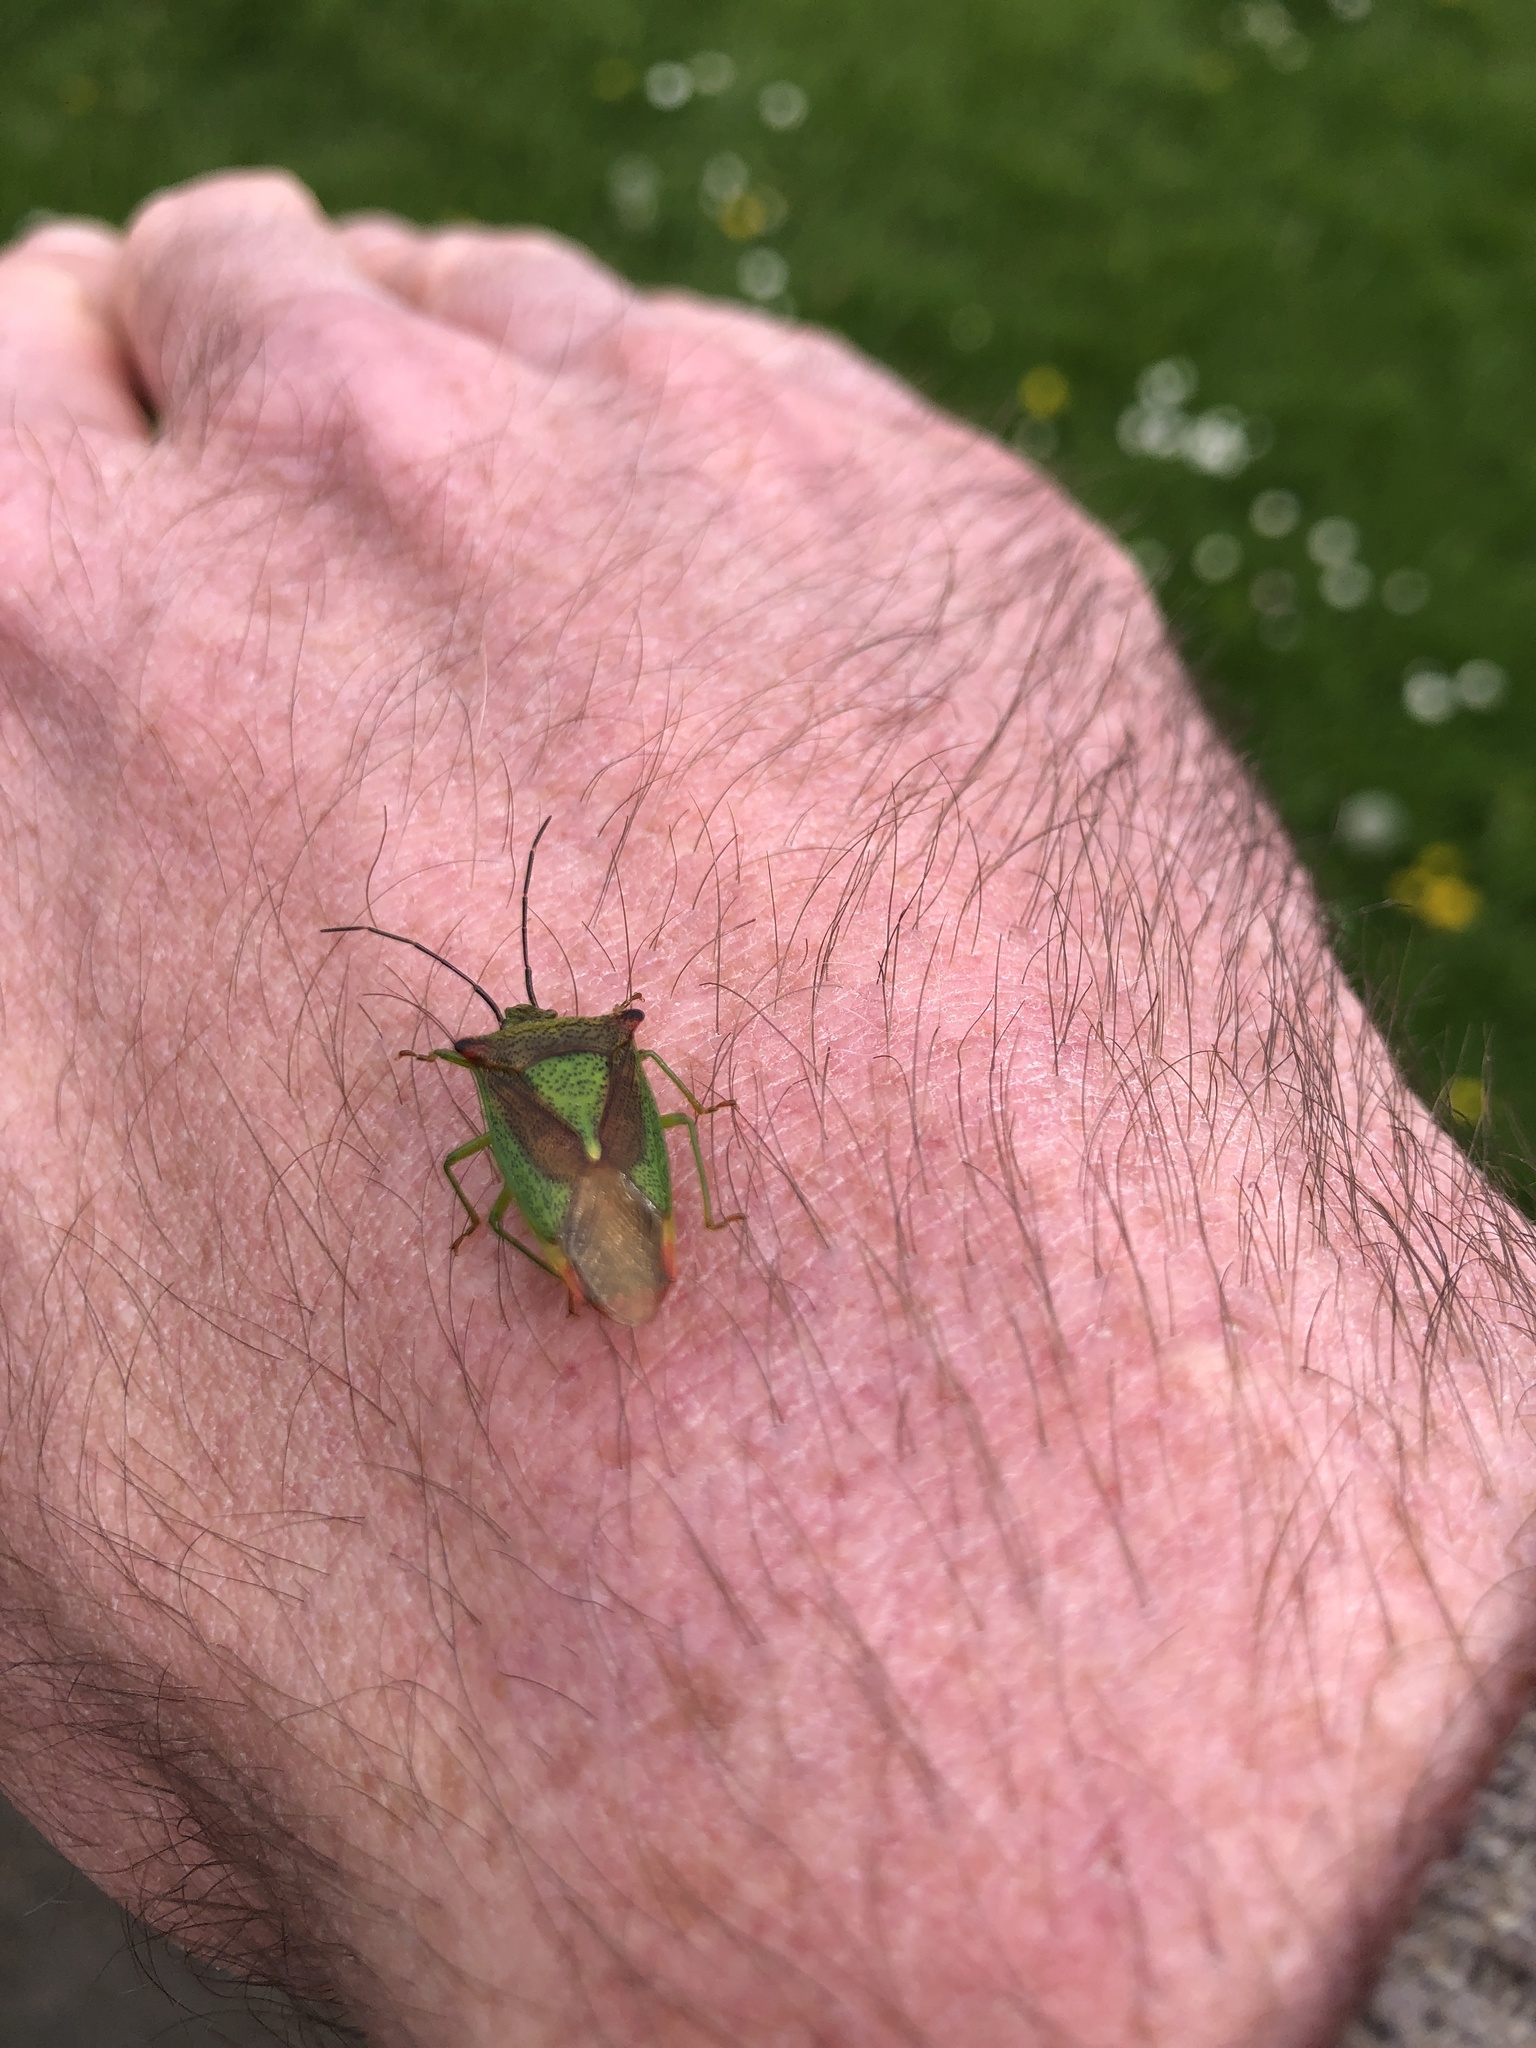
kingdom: Animalia
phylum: Arthropoda
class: Insecta
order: Hemiptera
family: Acanthosomatidae
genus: Acanthosoma
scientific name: Acanthosoma haemorrhoidale
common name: Hawthorn shieldbug
